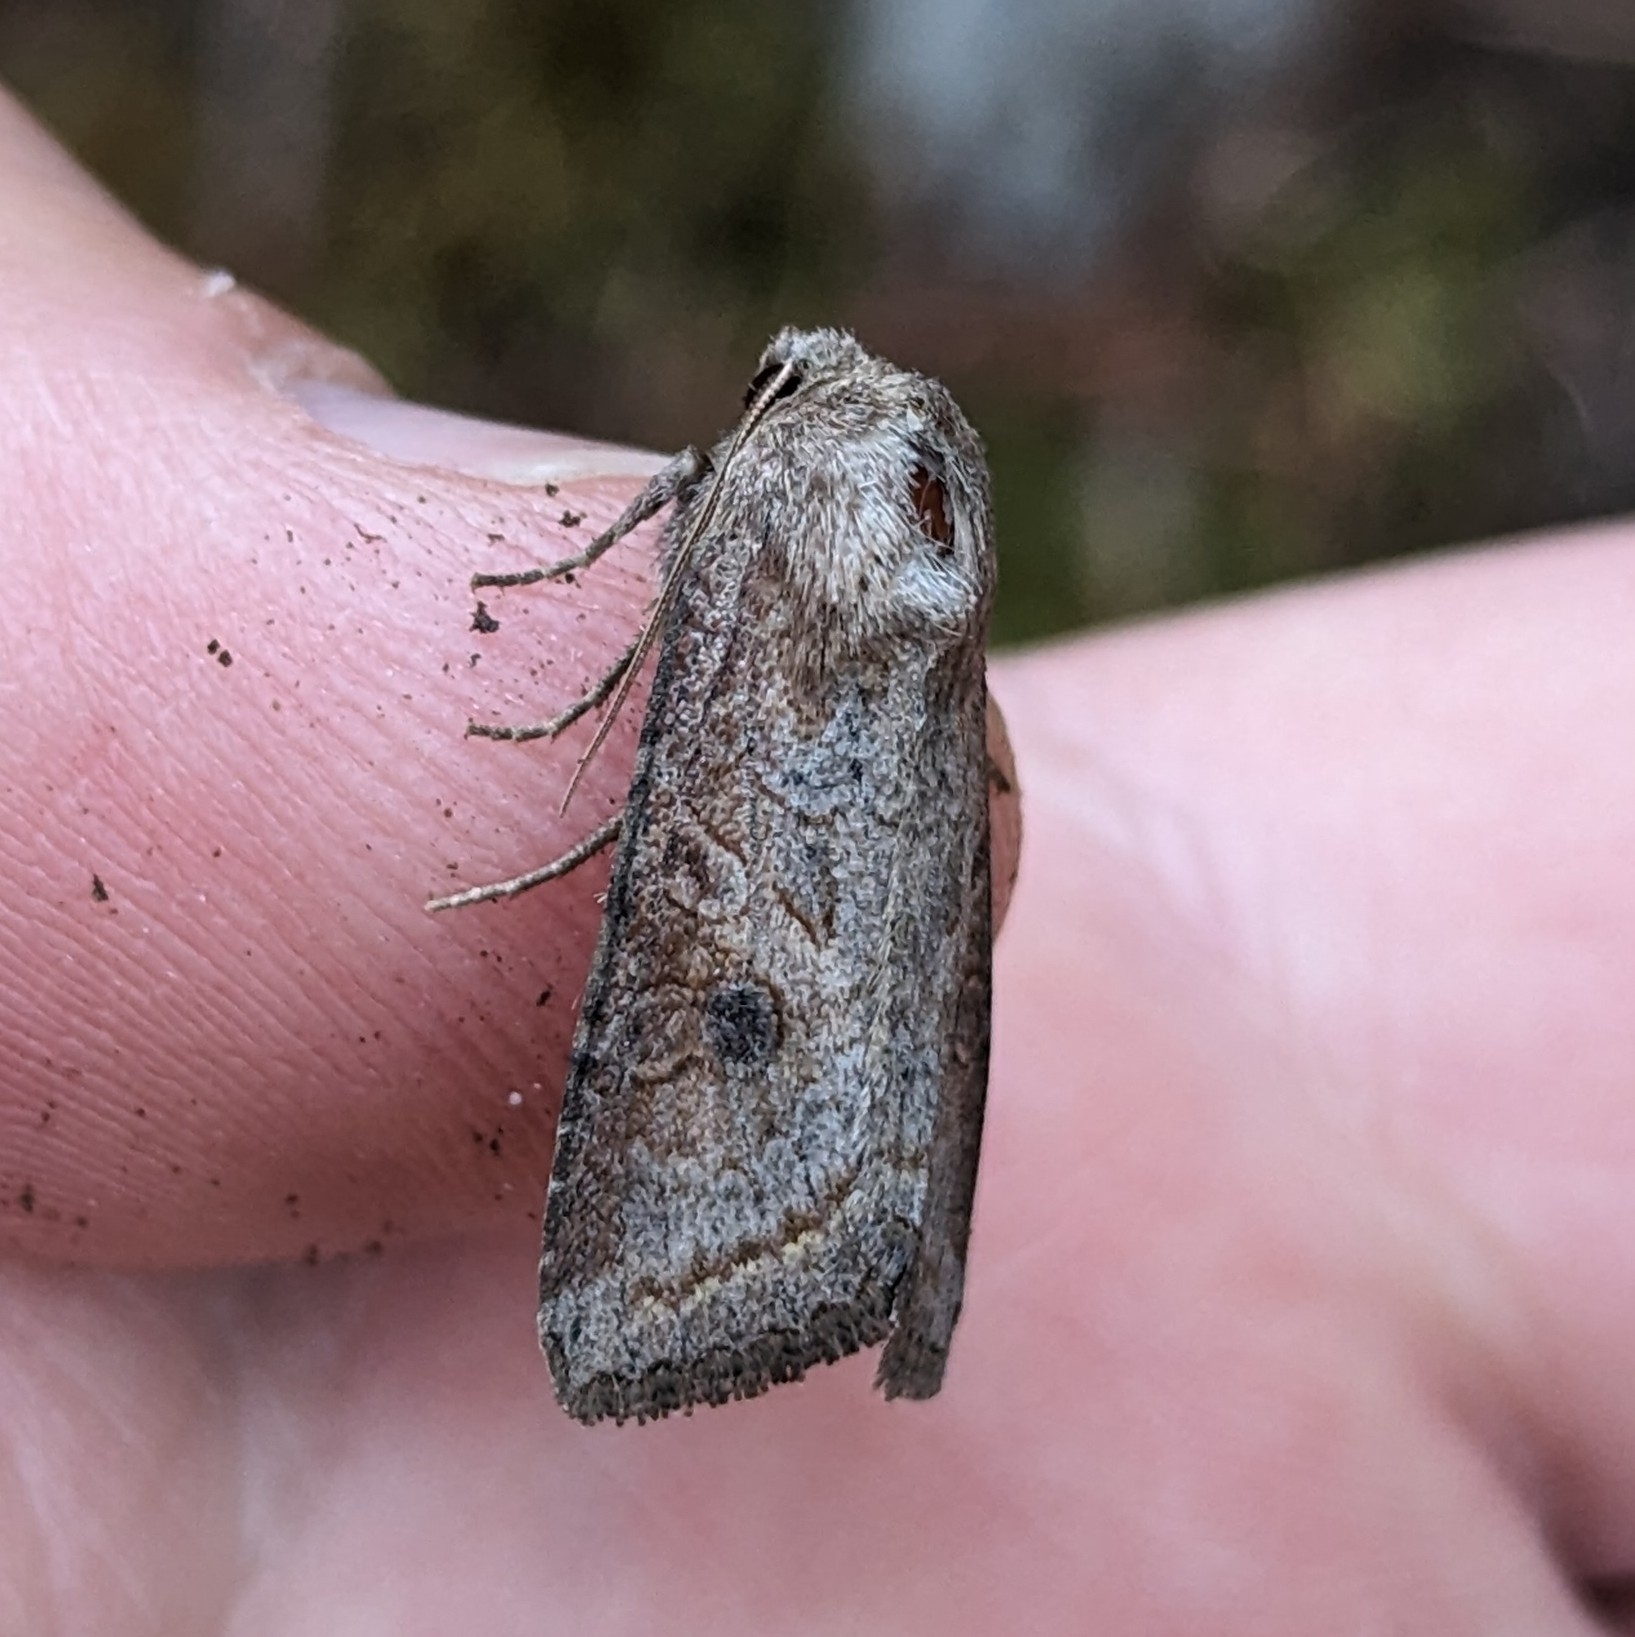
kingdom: Animalia
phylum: Arthropoda
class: Insecta
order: Lepidoptera
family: Noctuidae
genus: Trichordestra
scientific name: Trichordestra lilacina
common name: Aster cutworm
